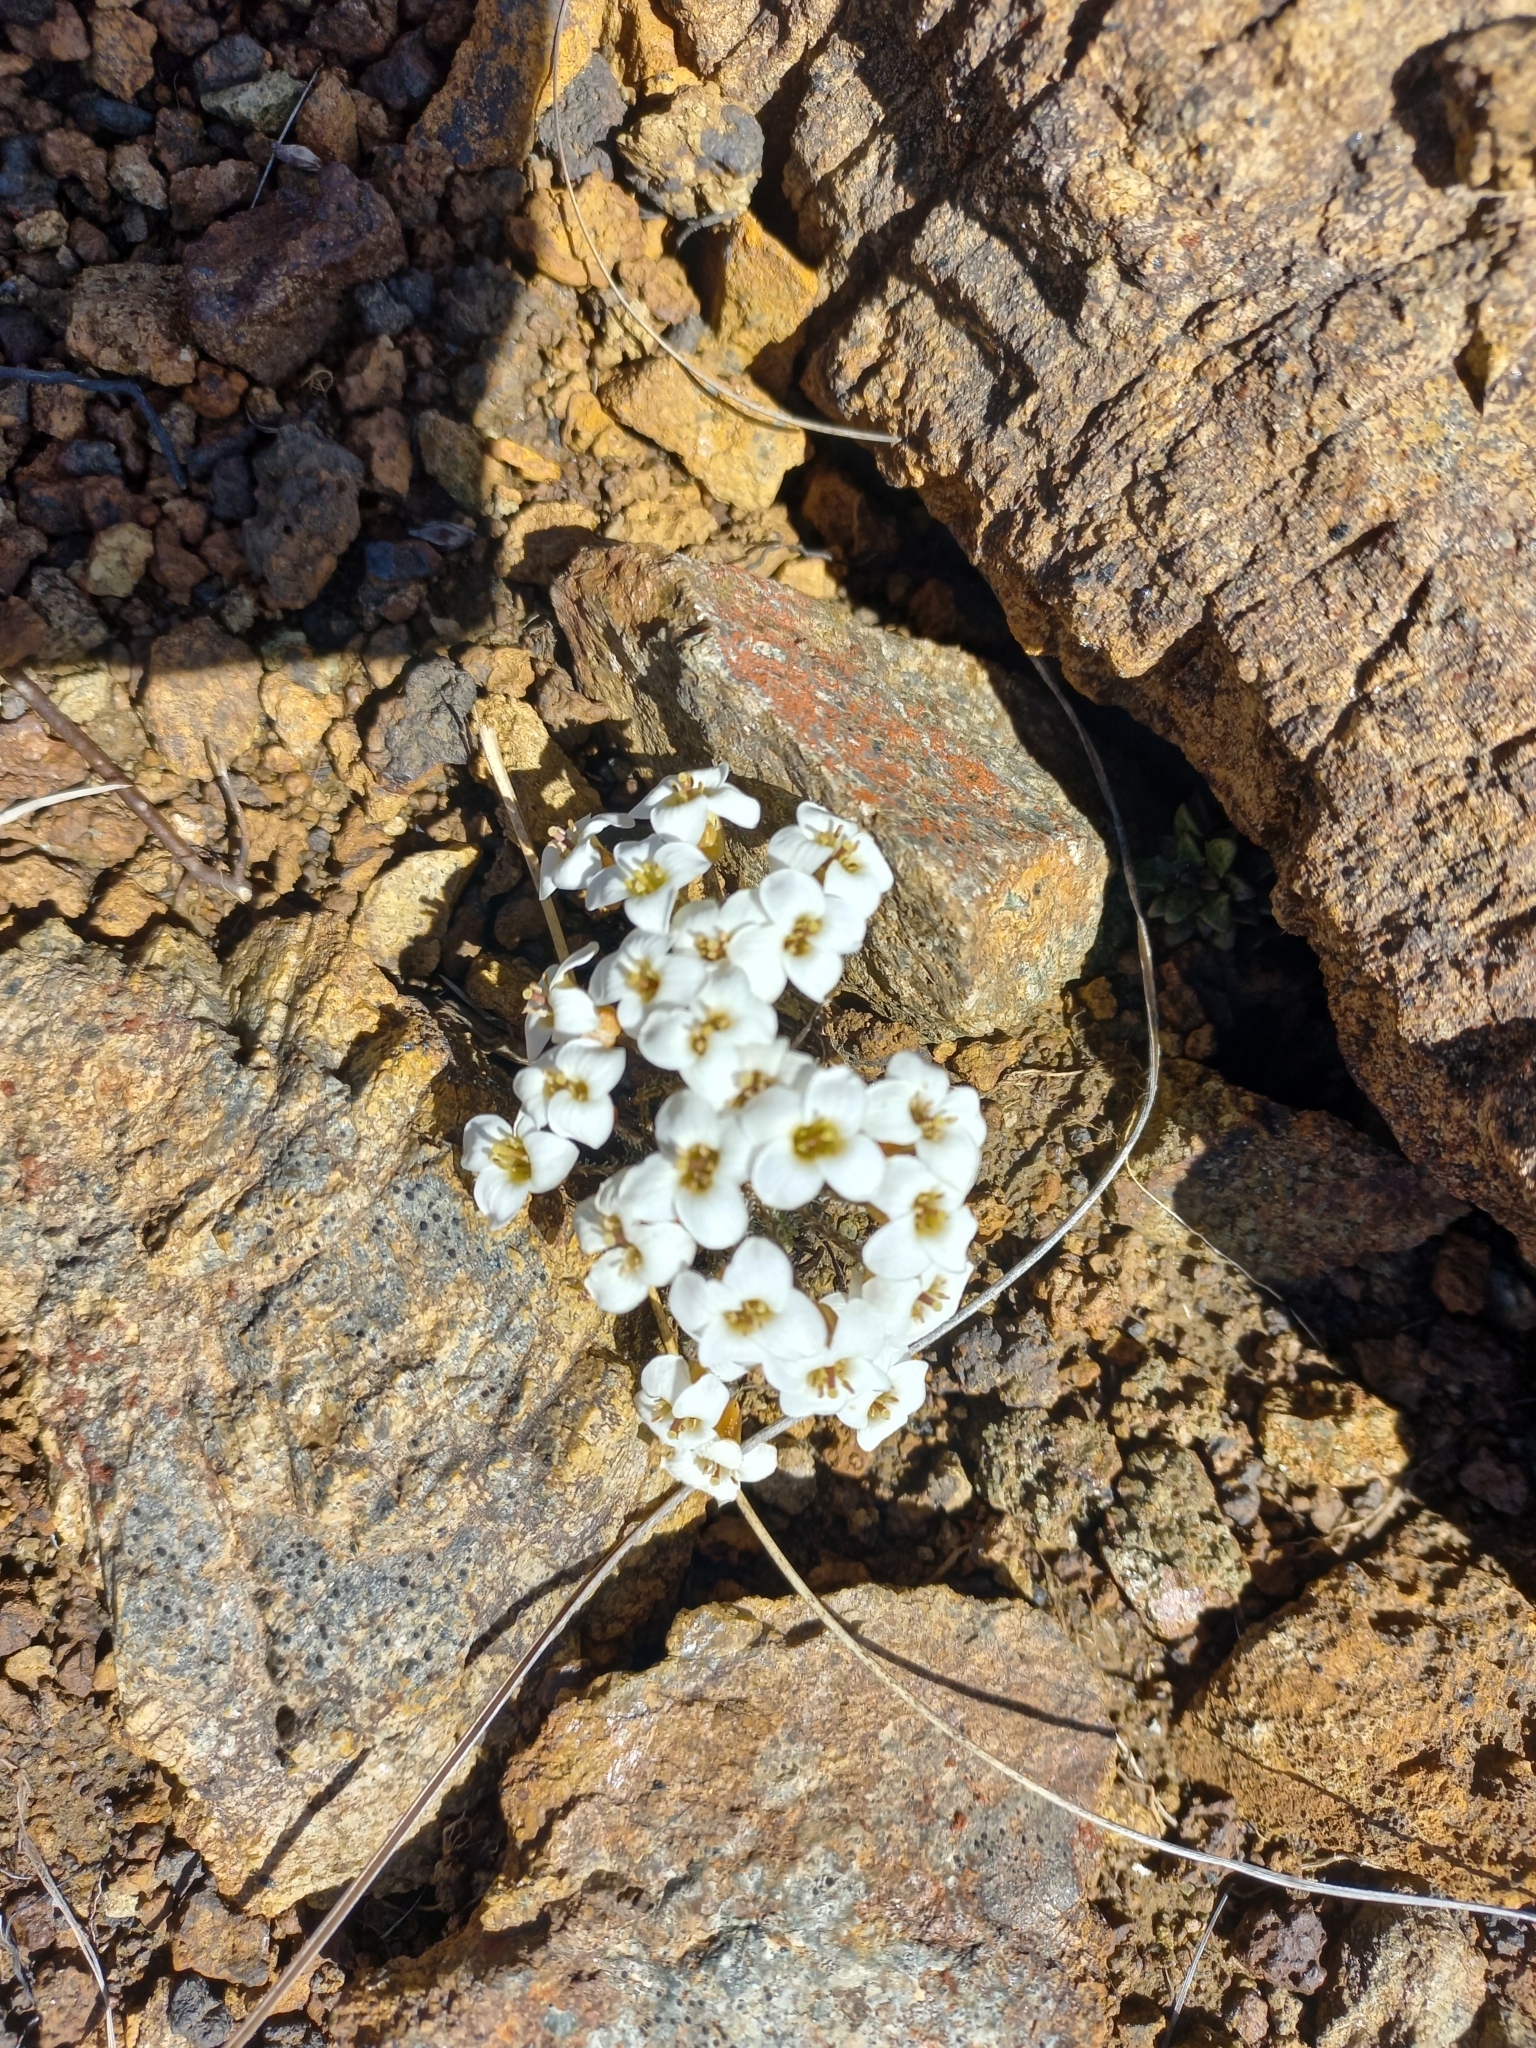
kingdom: Plantae
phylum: Tracheophyta
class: Magnoliopsida
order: Brassicales
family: Brassicaceae
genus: Notothlaspi
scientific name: Notothlaspi australe
